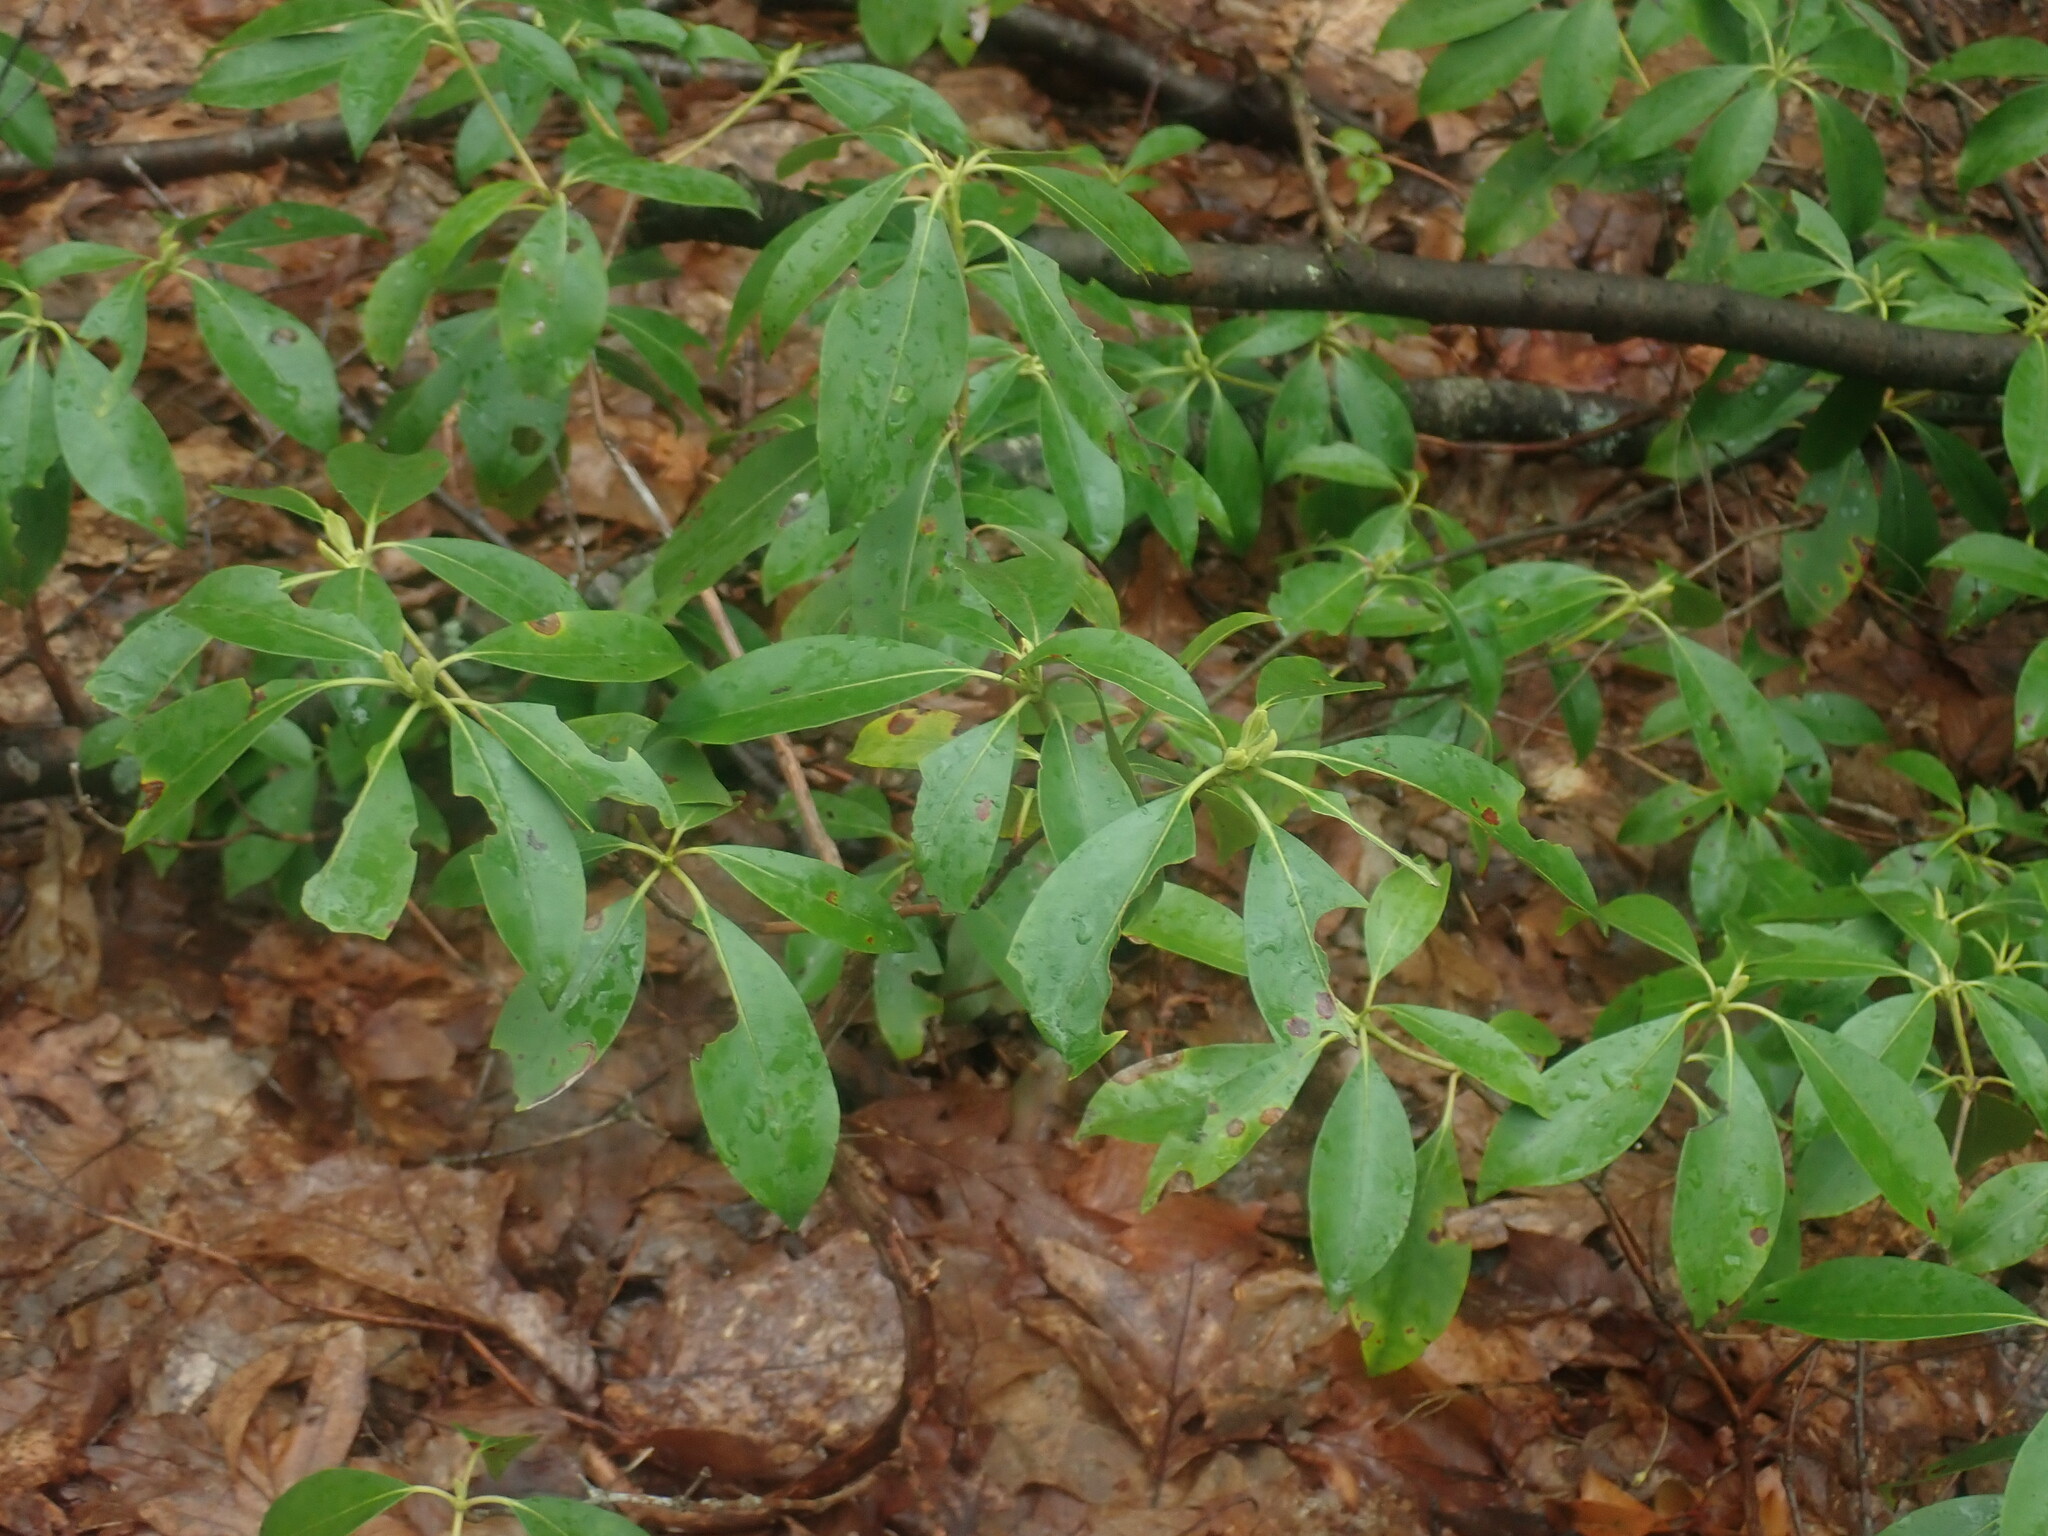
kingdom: Plantae
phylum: Tracheophyta
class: Magnoliopsida
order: Ericales
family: Ericaceae
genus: Kalmia
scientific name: Kalmia latifolia
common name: Mountain-laurel
